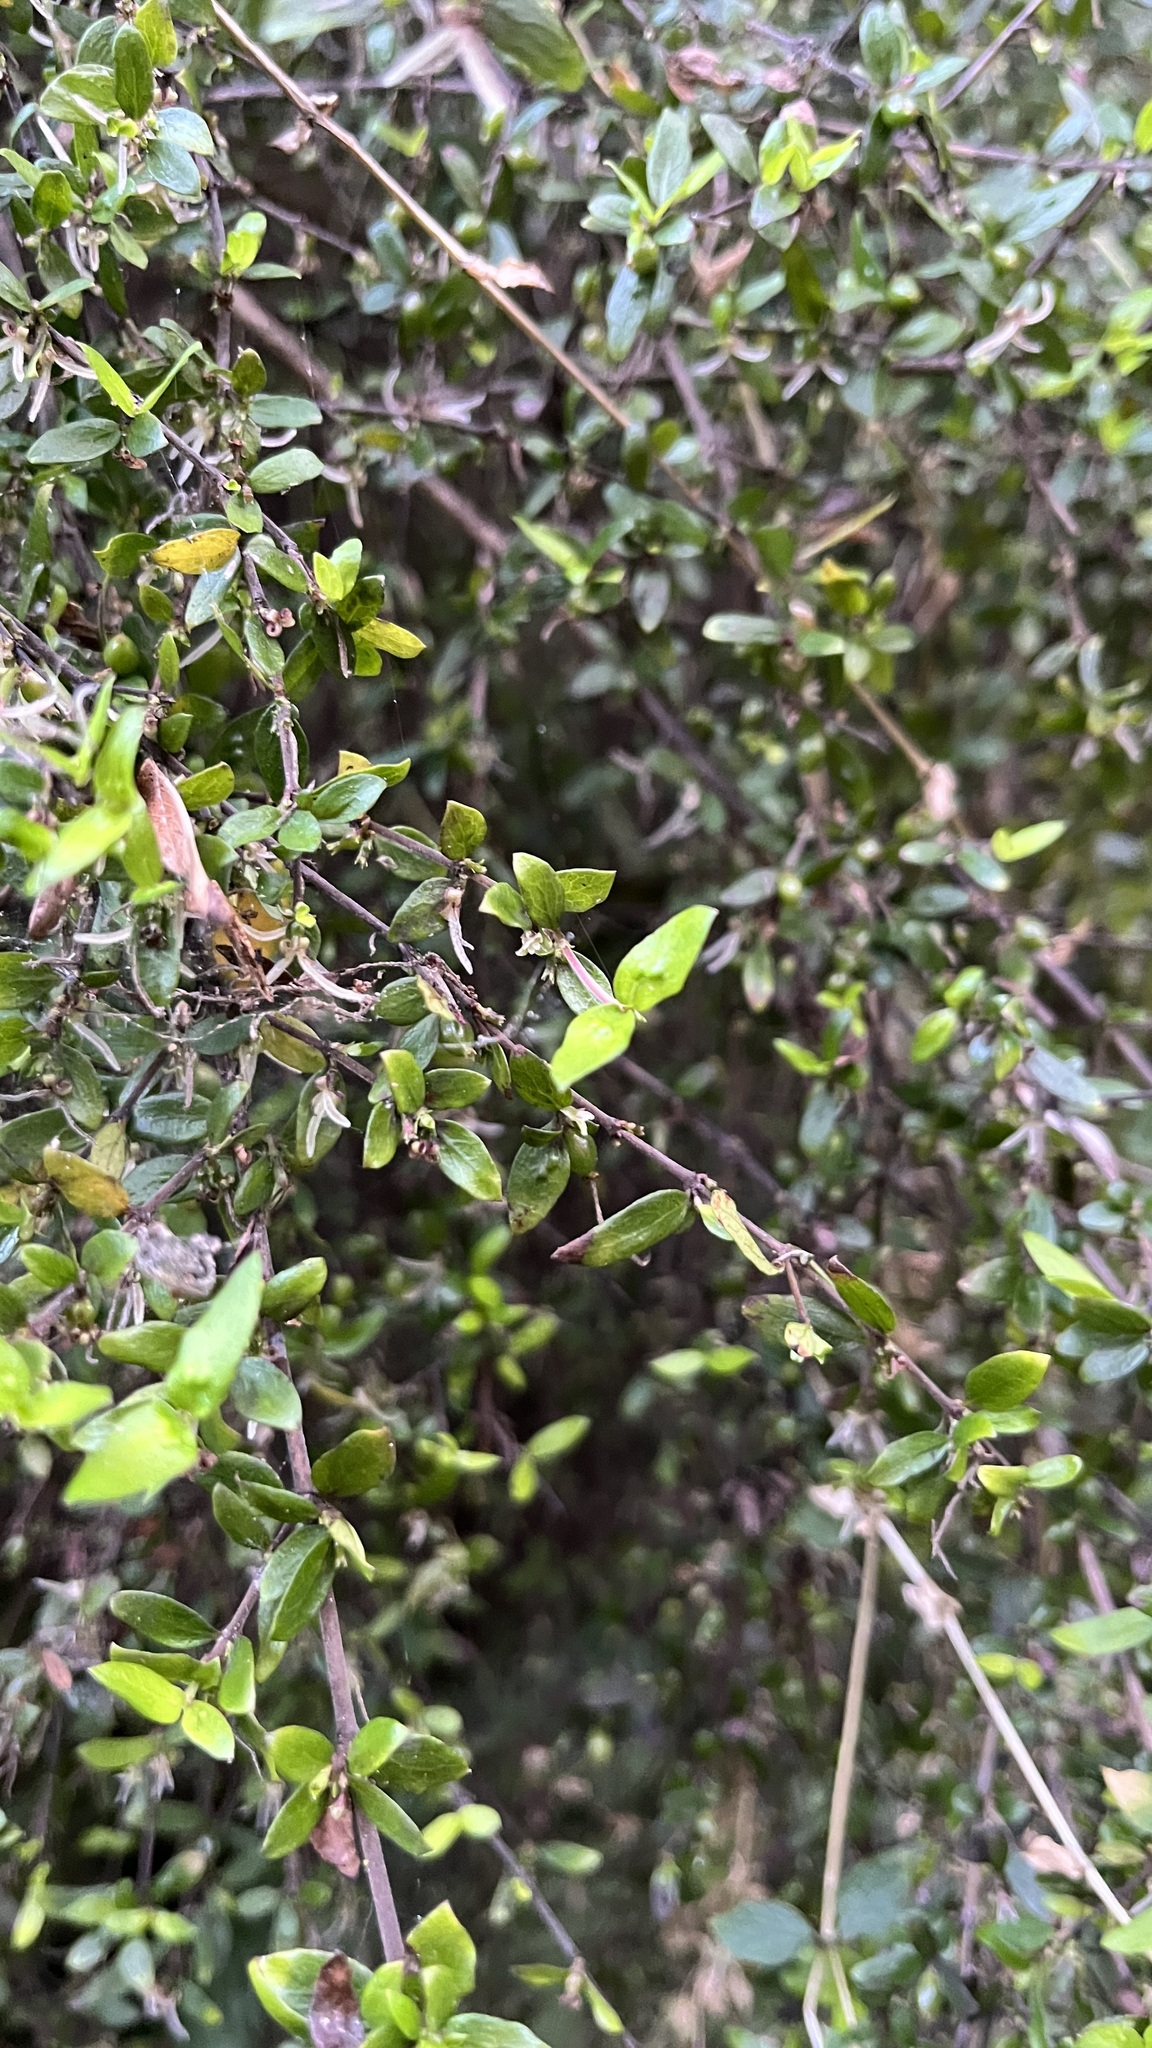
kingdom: Plantae
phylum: Tracheophyta
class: Magnoliopsida
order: Gentianales
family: Rubiaceae
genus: Coprosma
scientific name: Coprosma quadrifida
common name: Prickly currantbush
